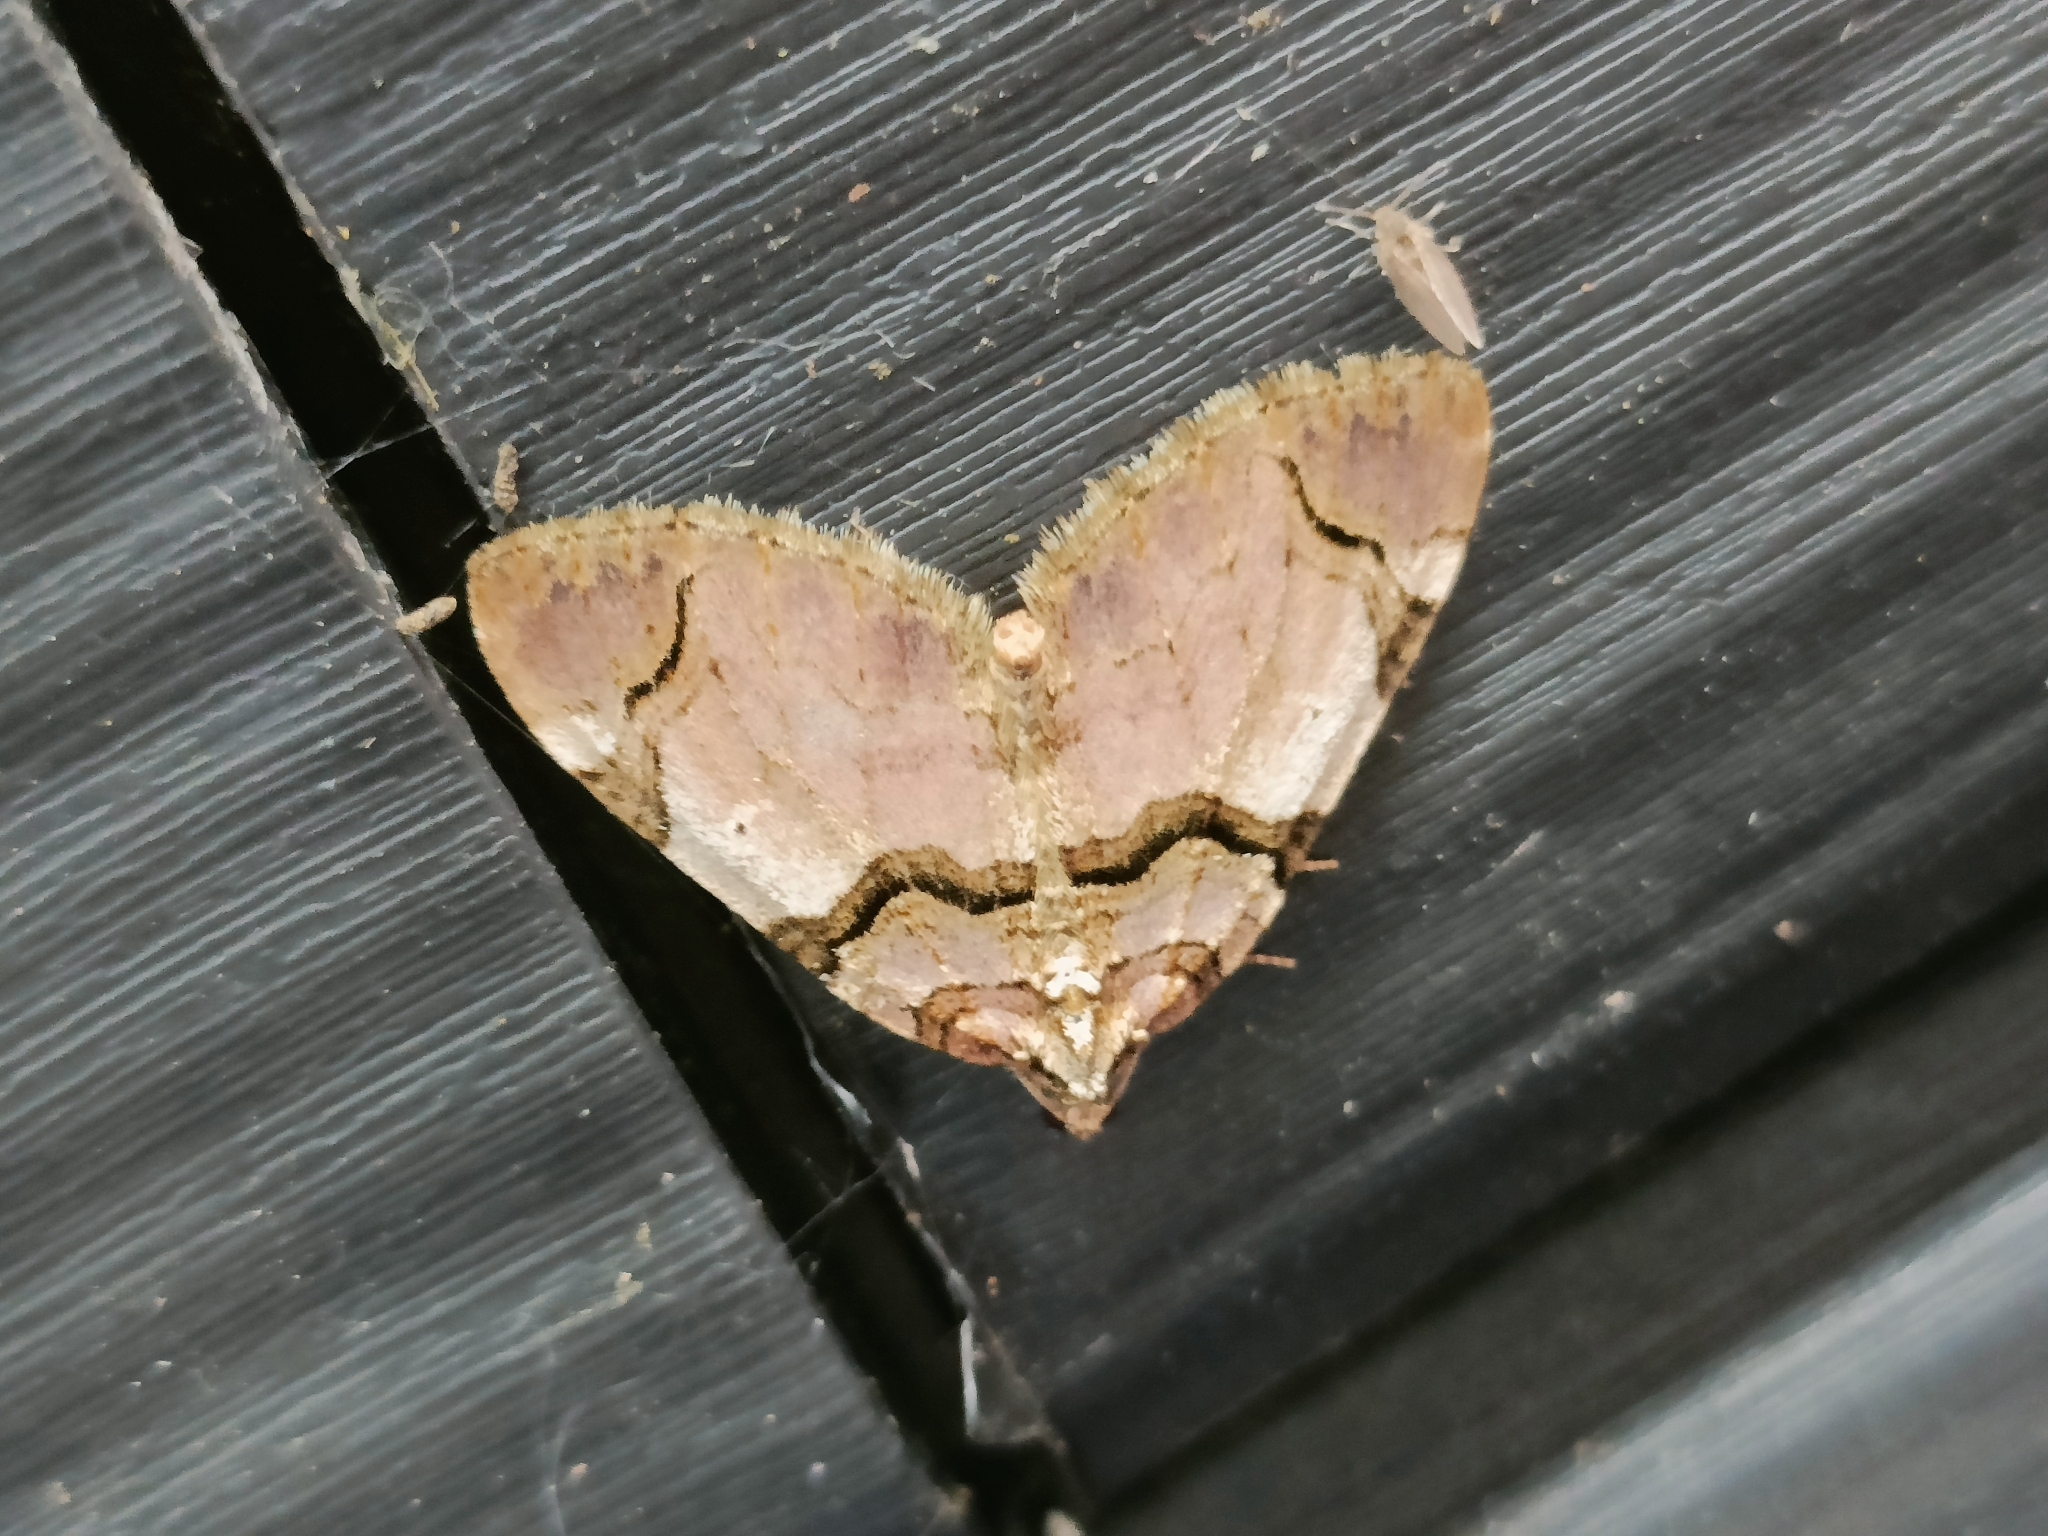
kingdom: Animalia
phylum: Arthropoda
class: Insecta
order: Lepidoptera
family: Geometridae
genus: Anticlea
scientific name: Anticlea derivata
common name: Streamer
